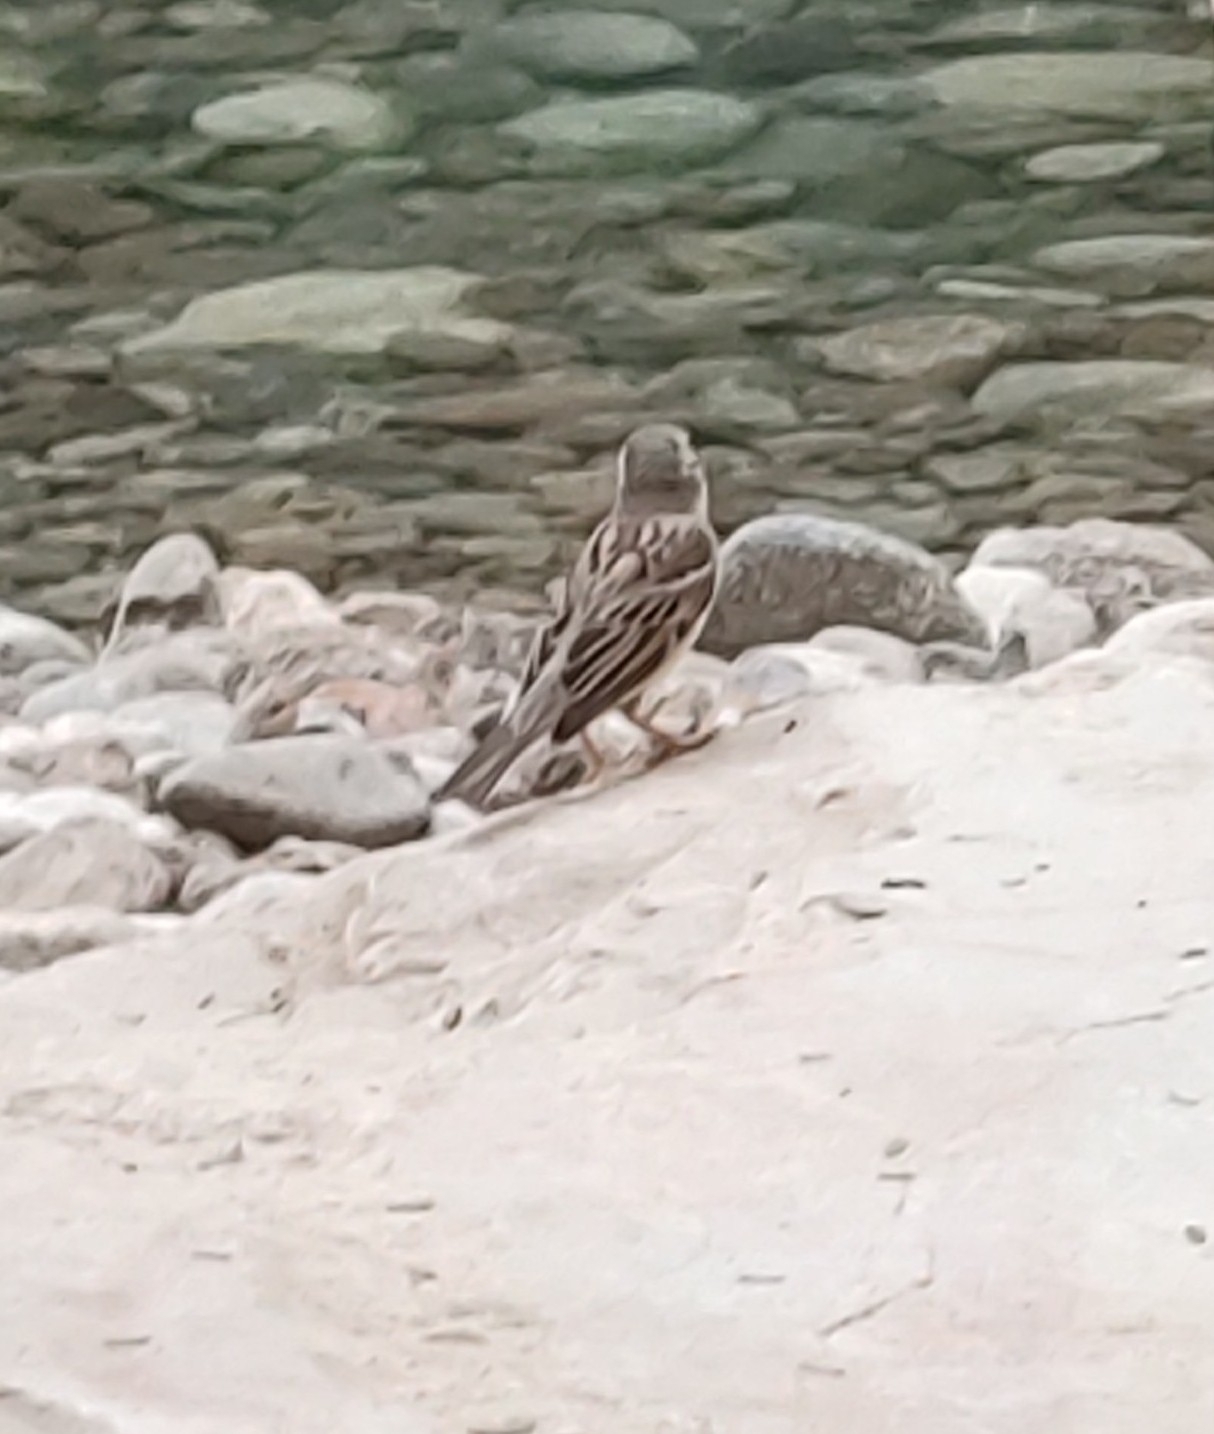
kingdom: Animalia
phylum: Chordata
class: Aves
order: Passeriformes
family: Passeridae
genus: Passer
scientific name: Passer domesticus
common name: House sparrow
